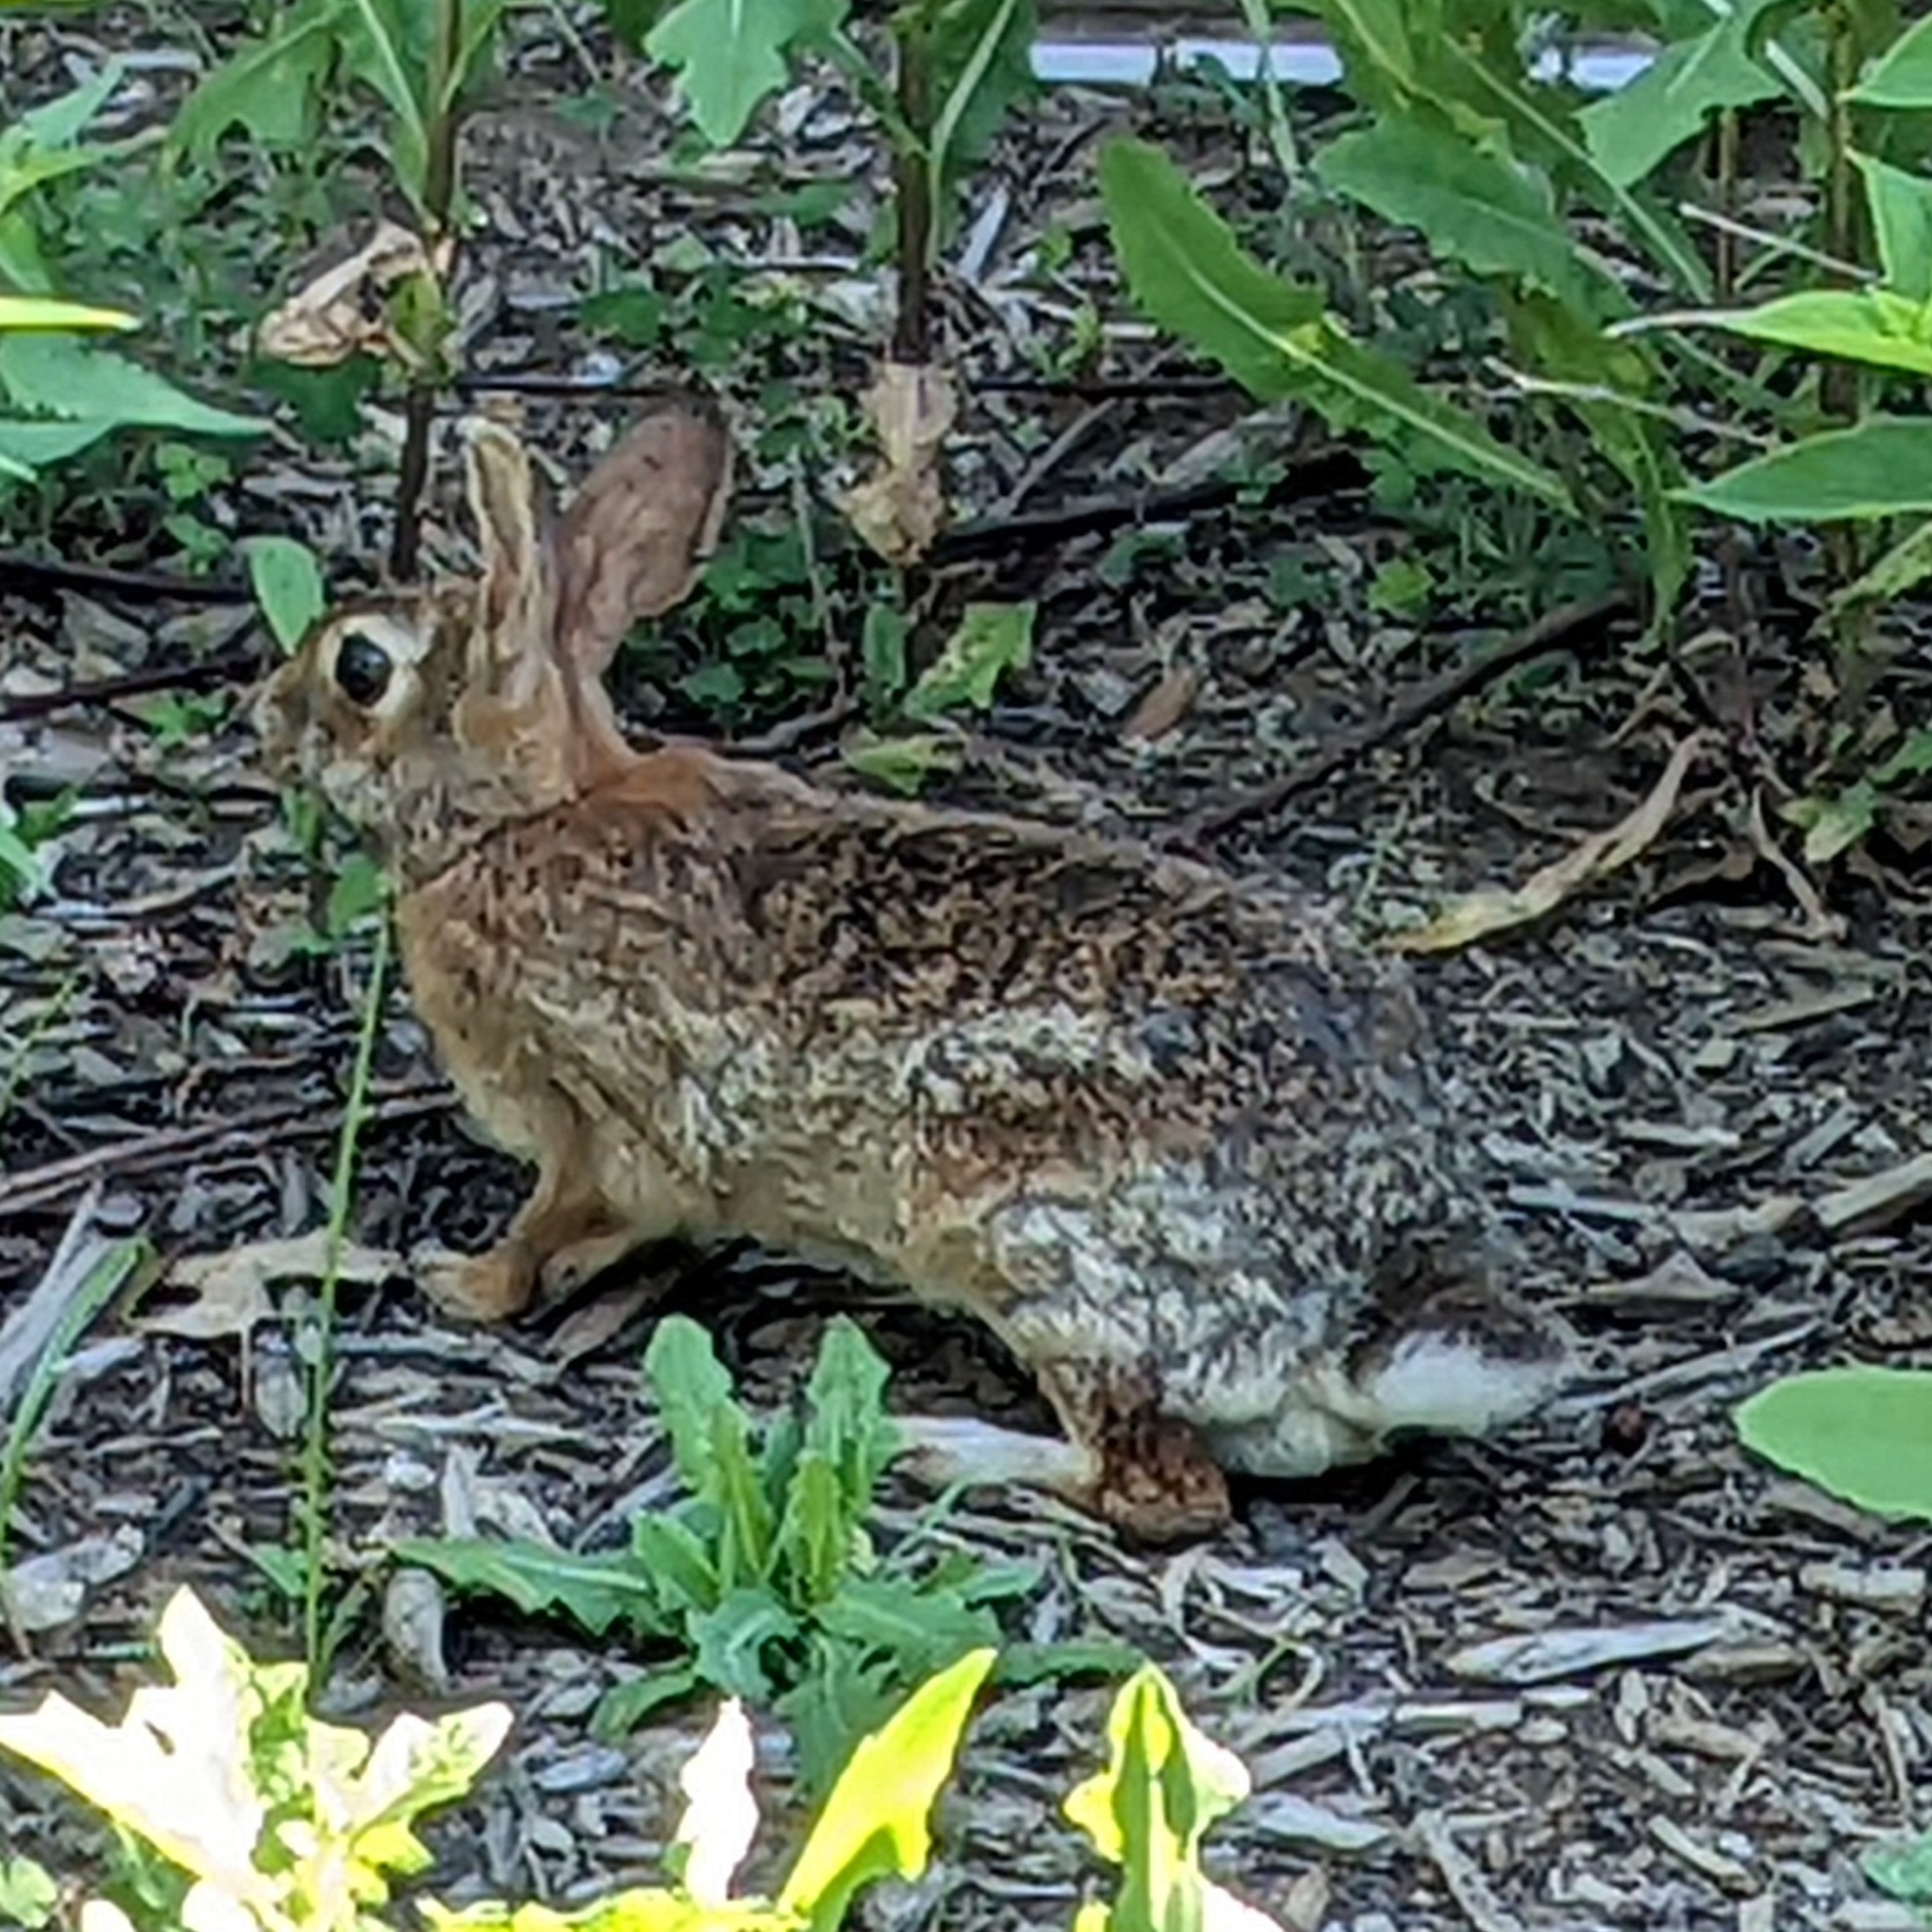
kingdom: Animalia
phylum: Chordata
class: Mammalia
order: Lagomorpha
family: Leporidae
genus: Sylvilagus
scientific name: Sylvilagus floridanus
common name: Eastern cottontail
